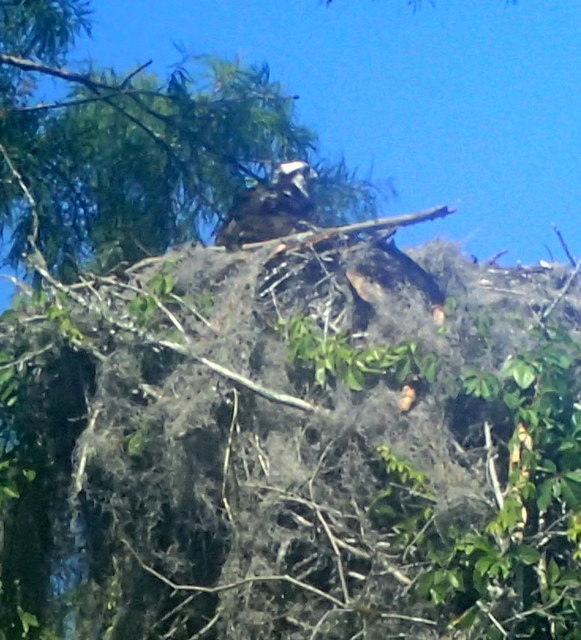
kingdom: Animalia
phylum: Chordata
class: Aves
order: Accipitriformes
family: Pandionidae
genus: Pandion
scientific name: Pandion haliaetus
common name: Osprey
